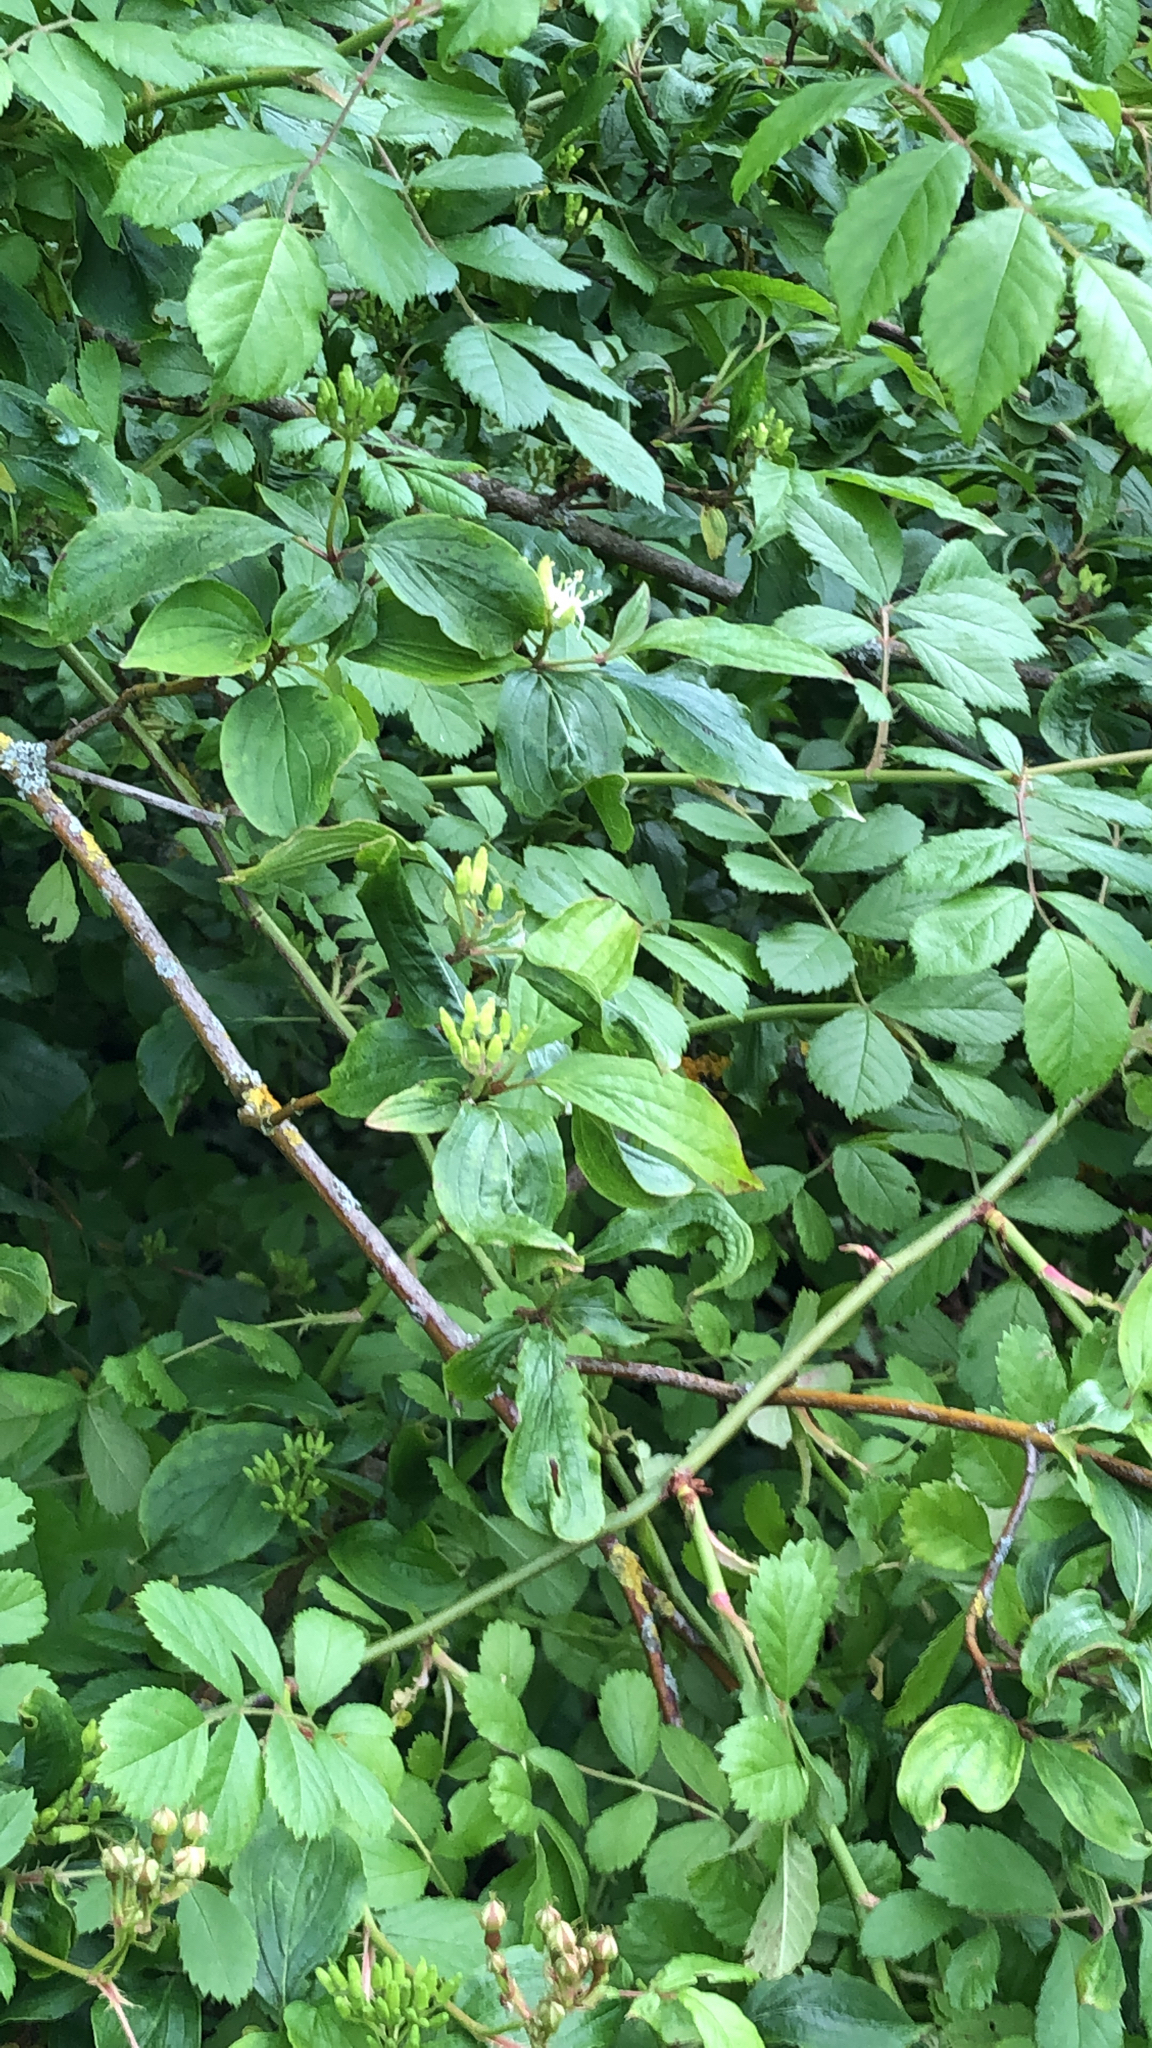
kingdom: Plantae
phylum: Tracheophyta
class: Magnoliopsida
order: Cornales
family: Cornaceae
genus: Cornus
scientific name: Cornus sanguinea
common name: Dogwood
